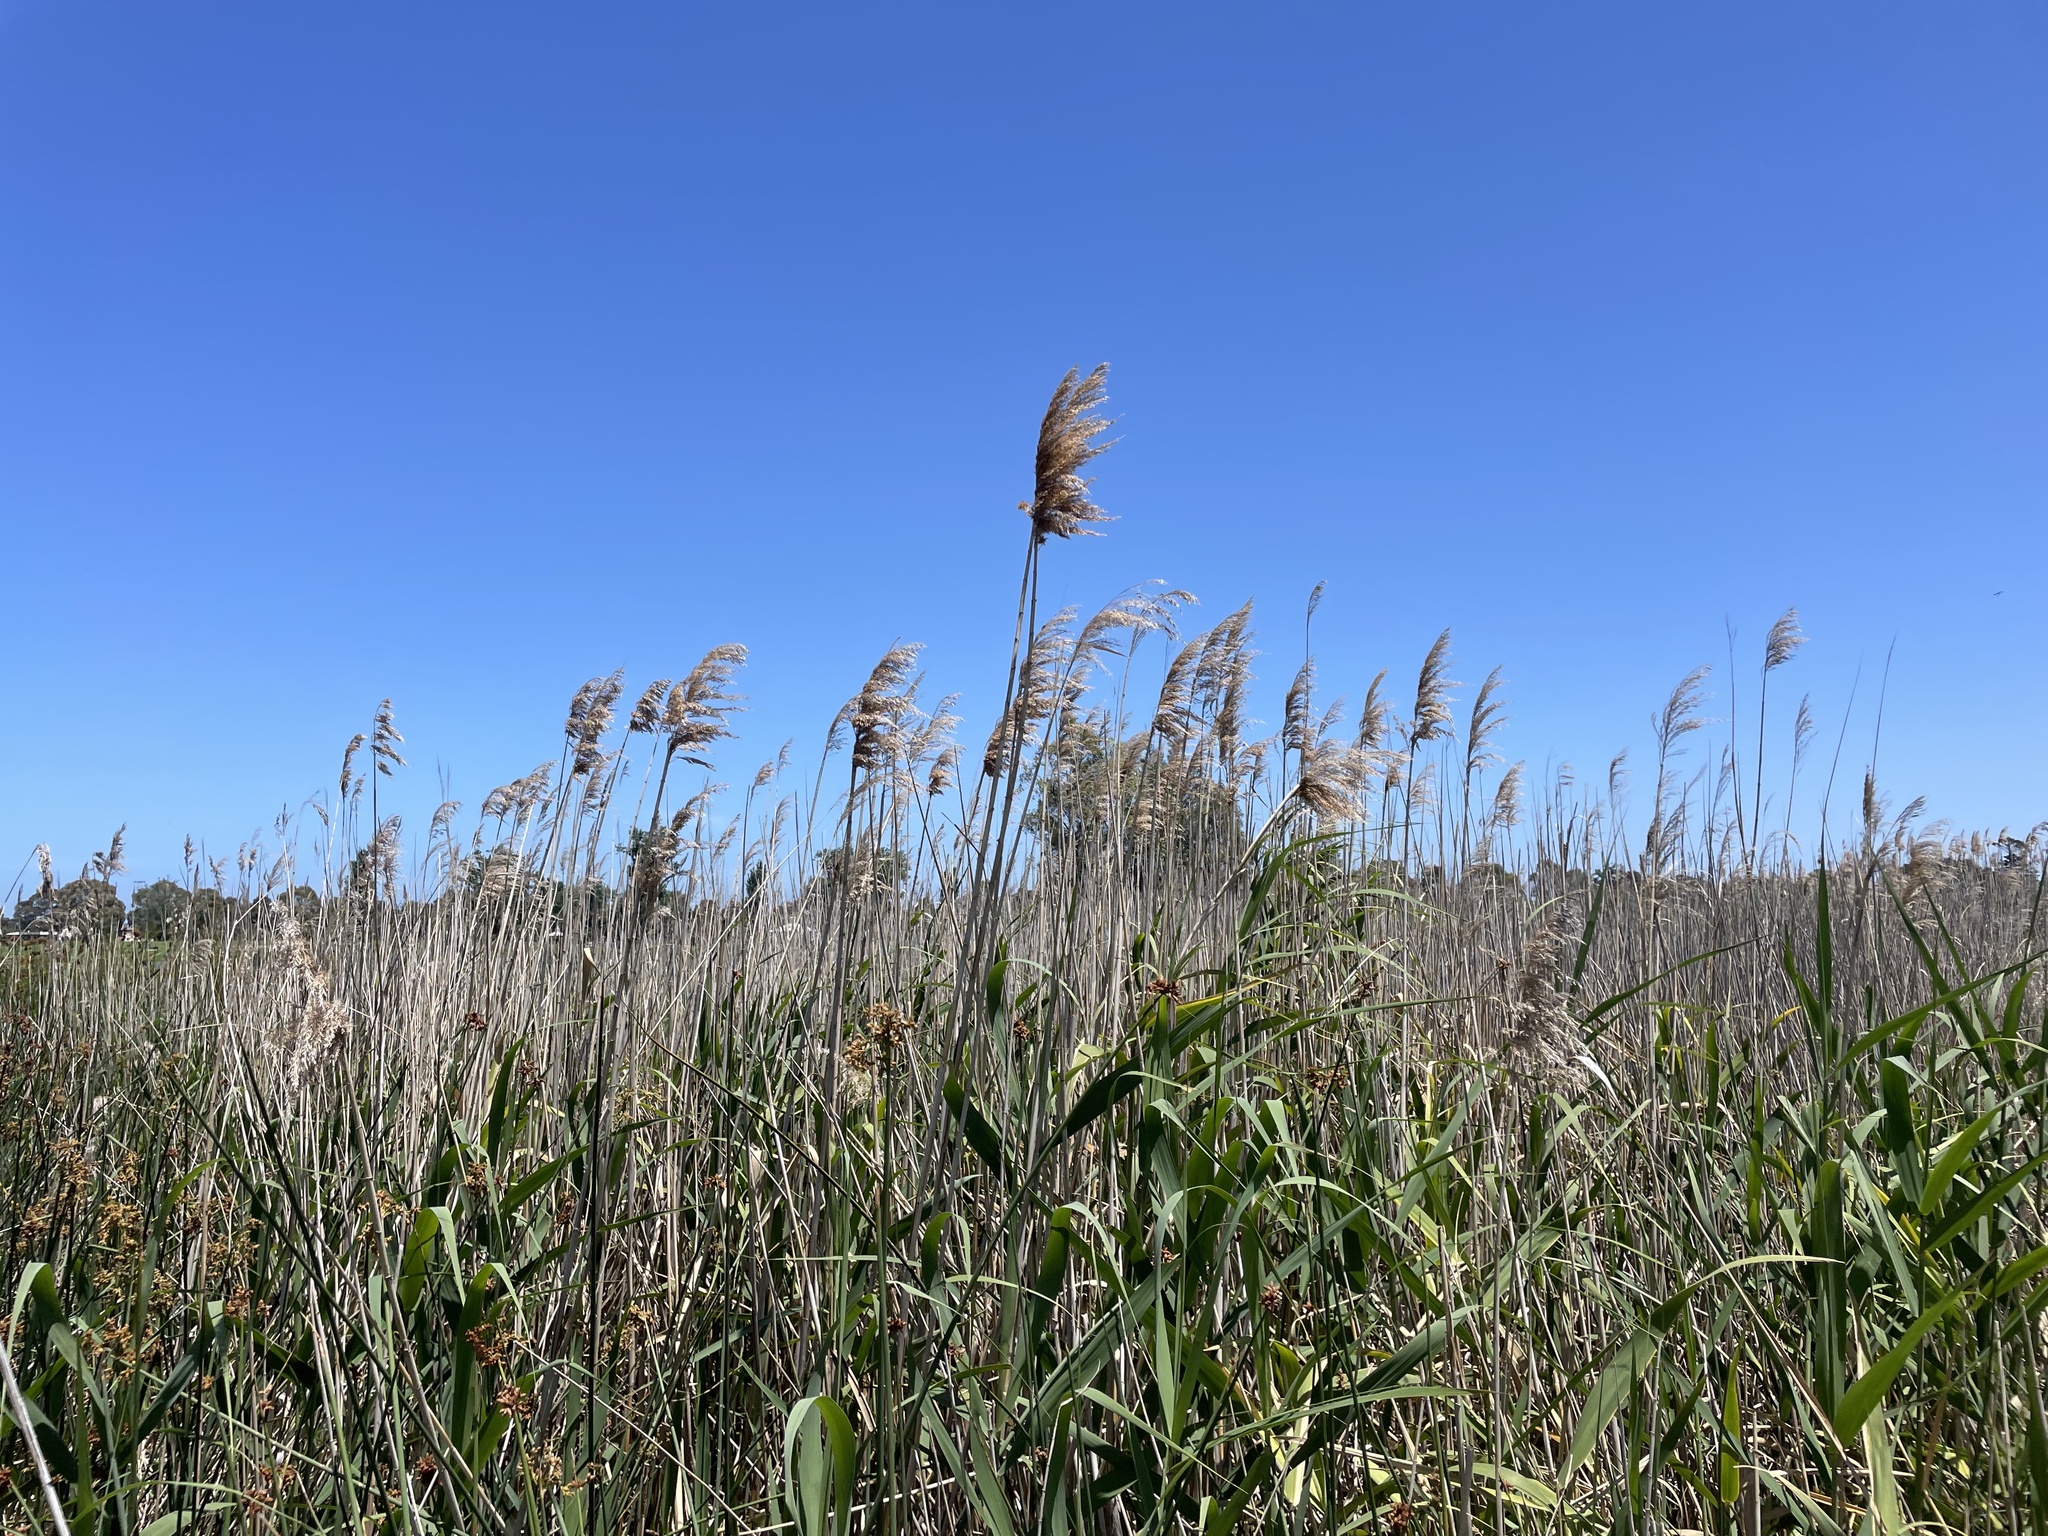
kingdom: Plantae
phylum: Tracheophyta
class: Liliopsida
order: Poales
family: Poaceae
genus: Phragmites
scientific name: Phragmites australis
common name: Common reed
